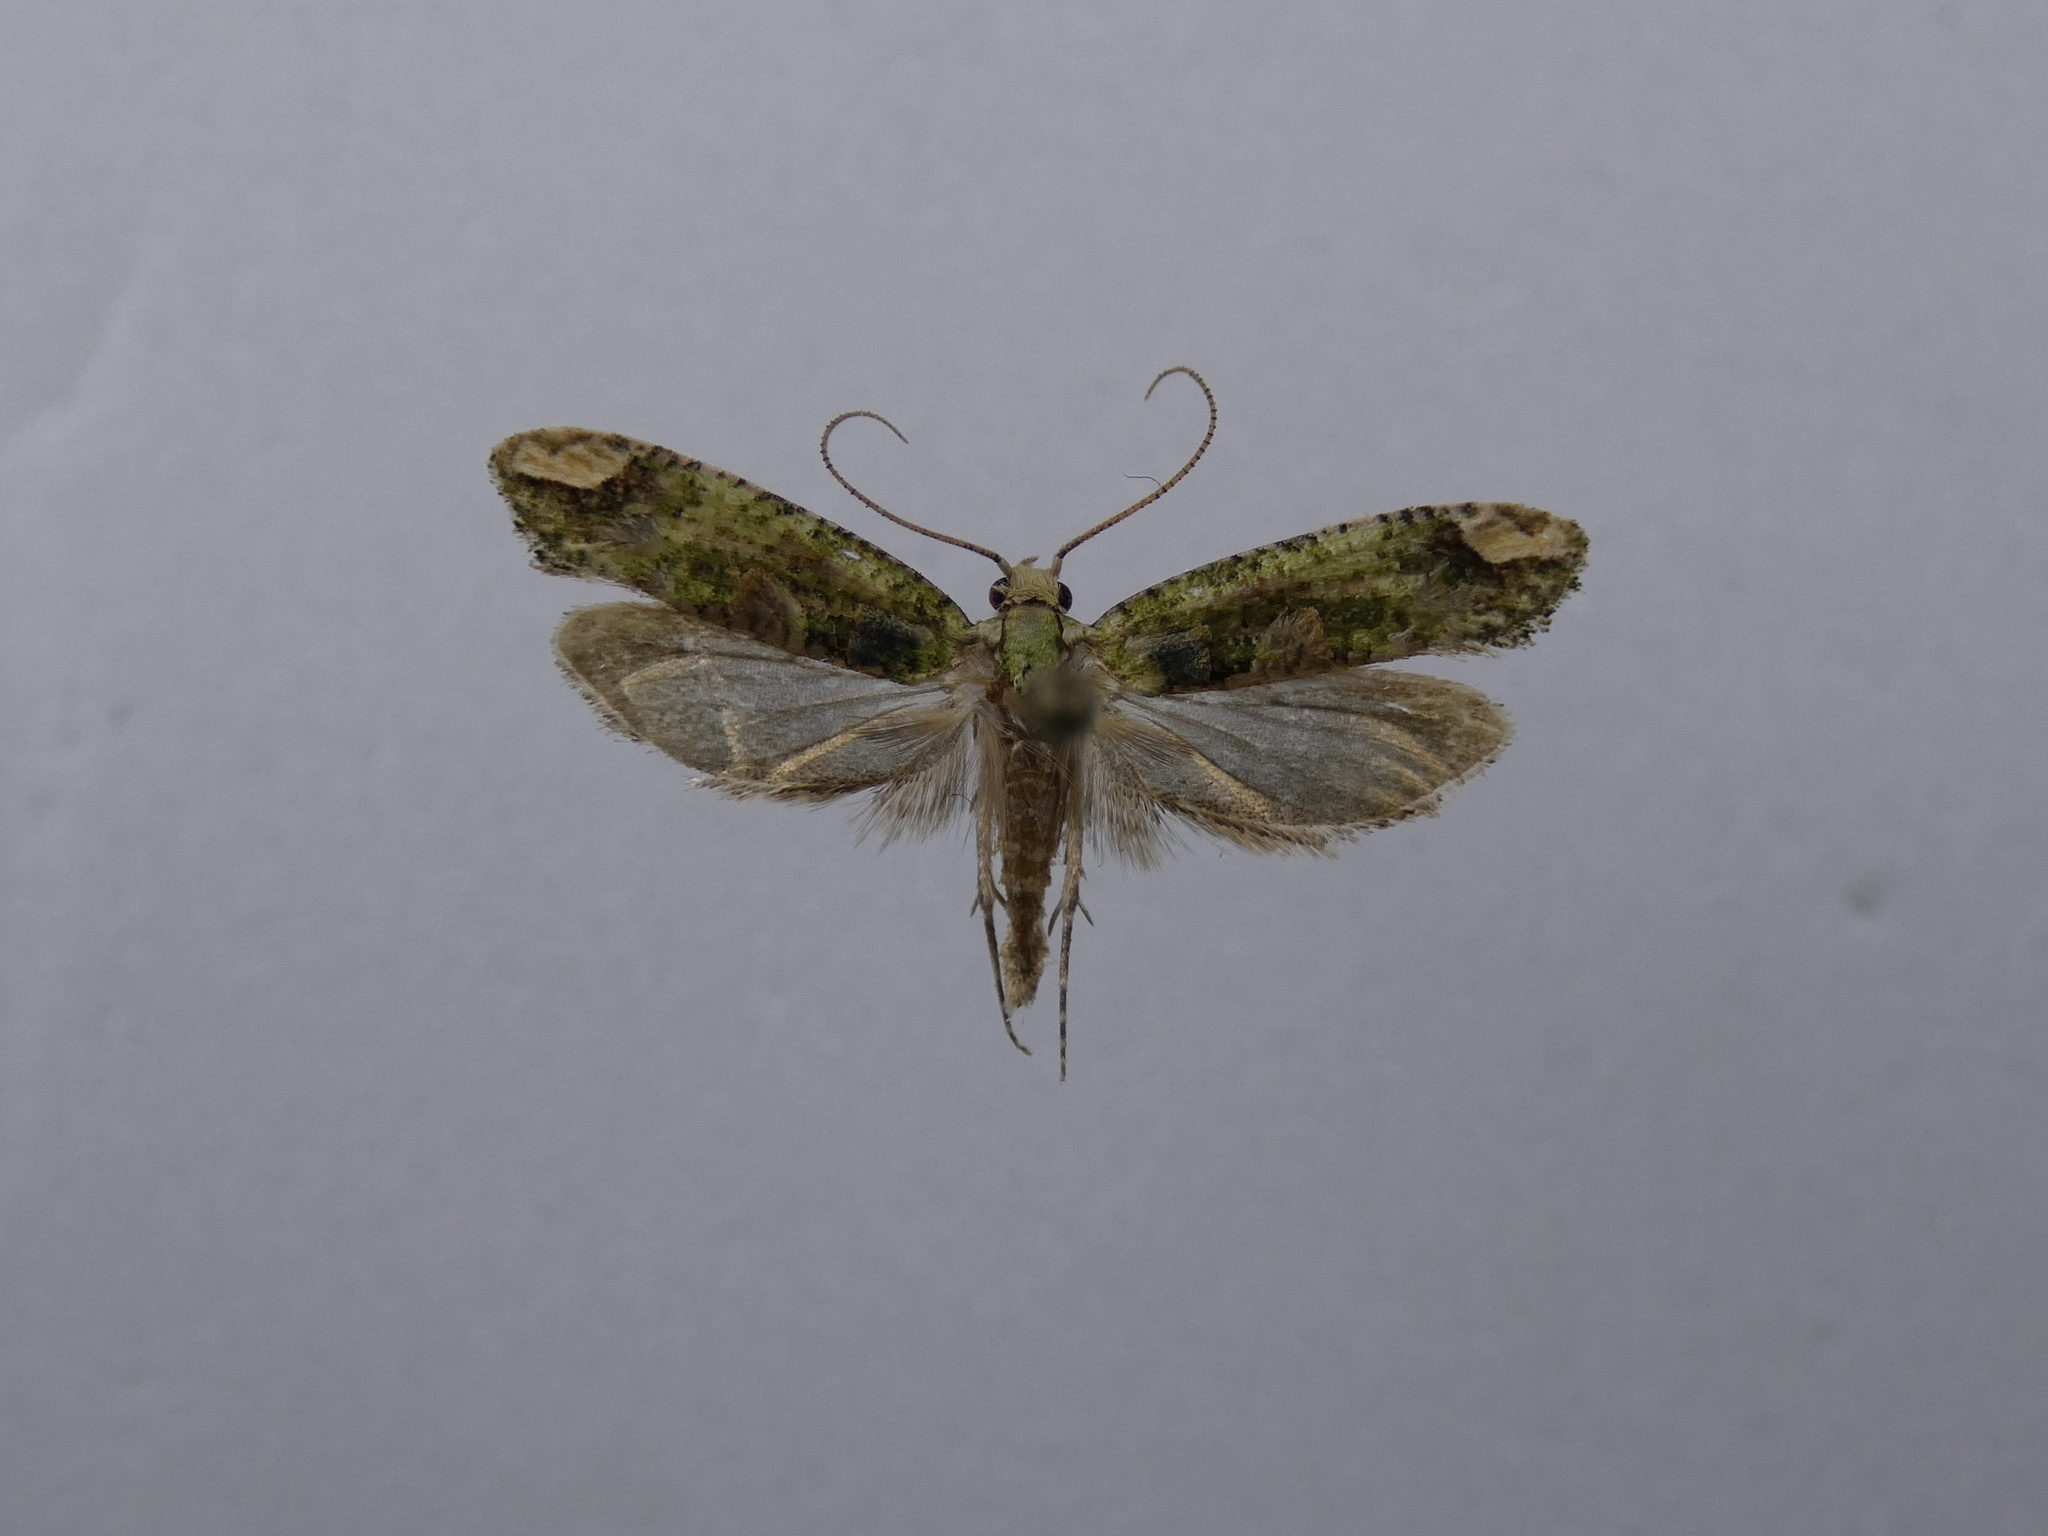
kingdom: Animalia
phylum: Arthropoda
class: Insecta
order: Lepidoptera
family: Tineidae
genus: Lysiphragma
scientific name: Lysiphragma mixochlora
